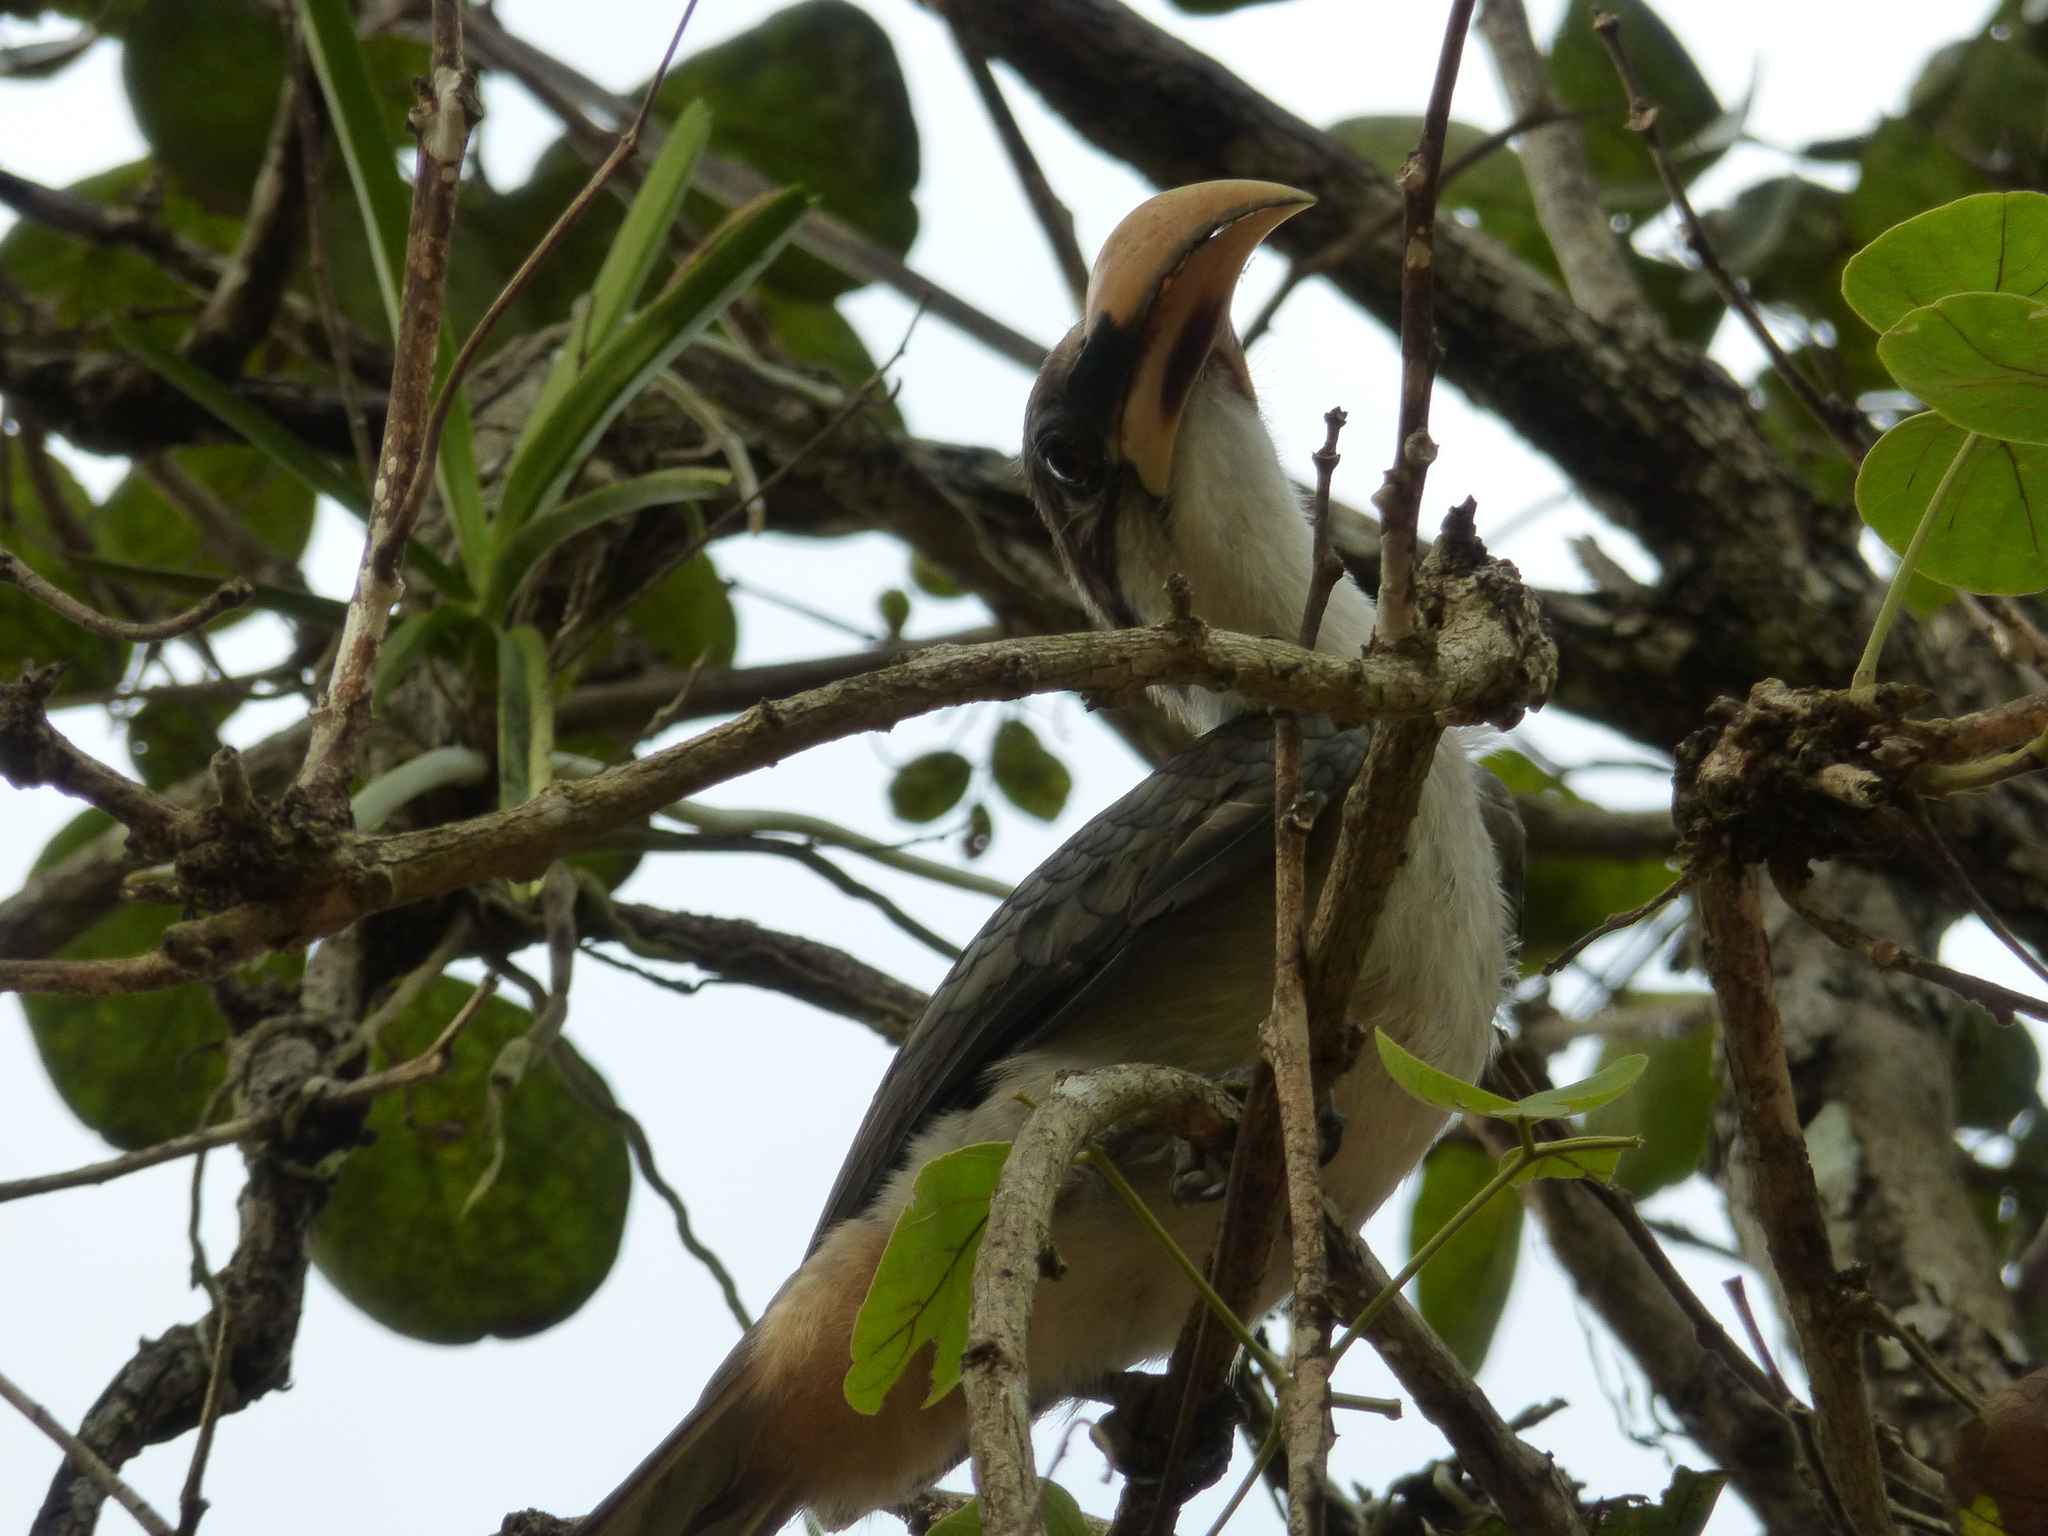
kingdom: Animalia
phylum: Chordata
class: Aves
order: Bucerotiformes
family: Bucerotidae
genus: Ocyceros
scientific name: Ocyceros gingalensis
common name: Sri lanka grey hornbill
